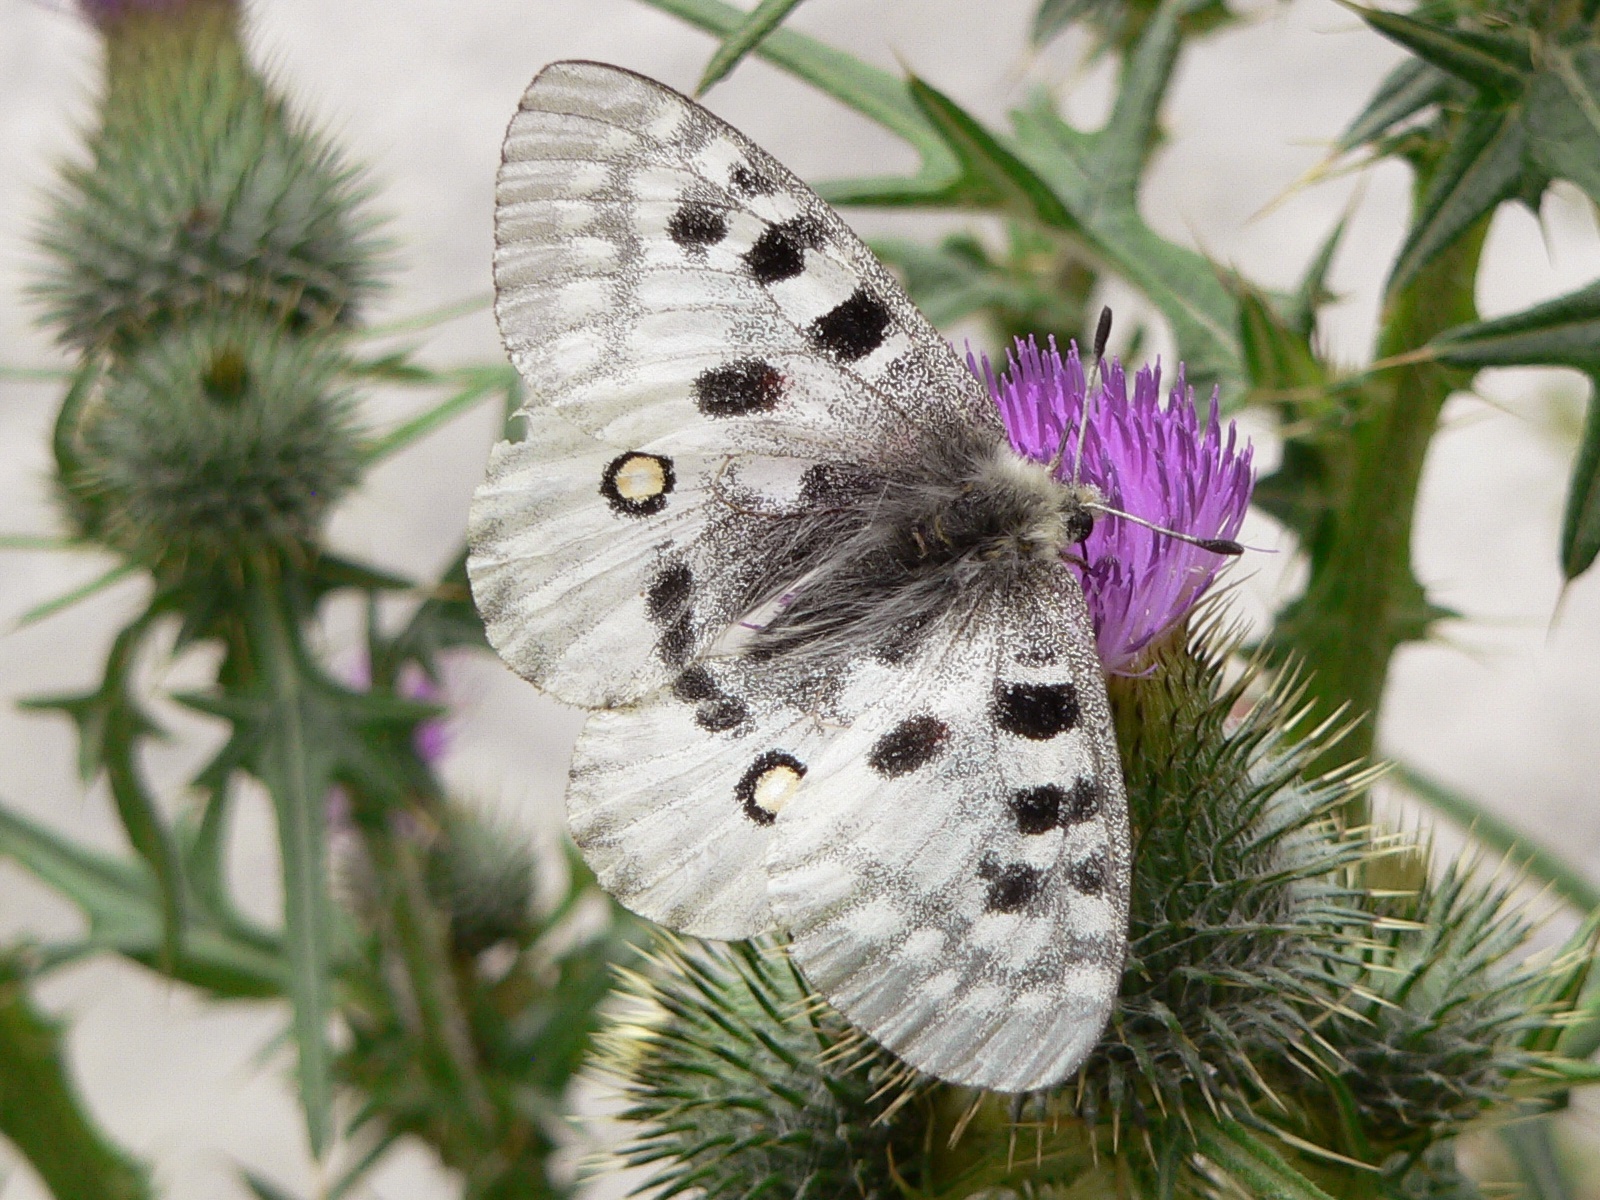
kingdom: Animalia
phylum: Arthropoda
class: Insecta
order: Lepidoptera
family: Papilionidae
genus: Parnassius
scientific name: Parnassius apollo
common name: Apollo
